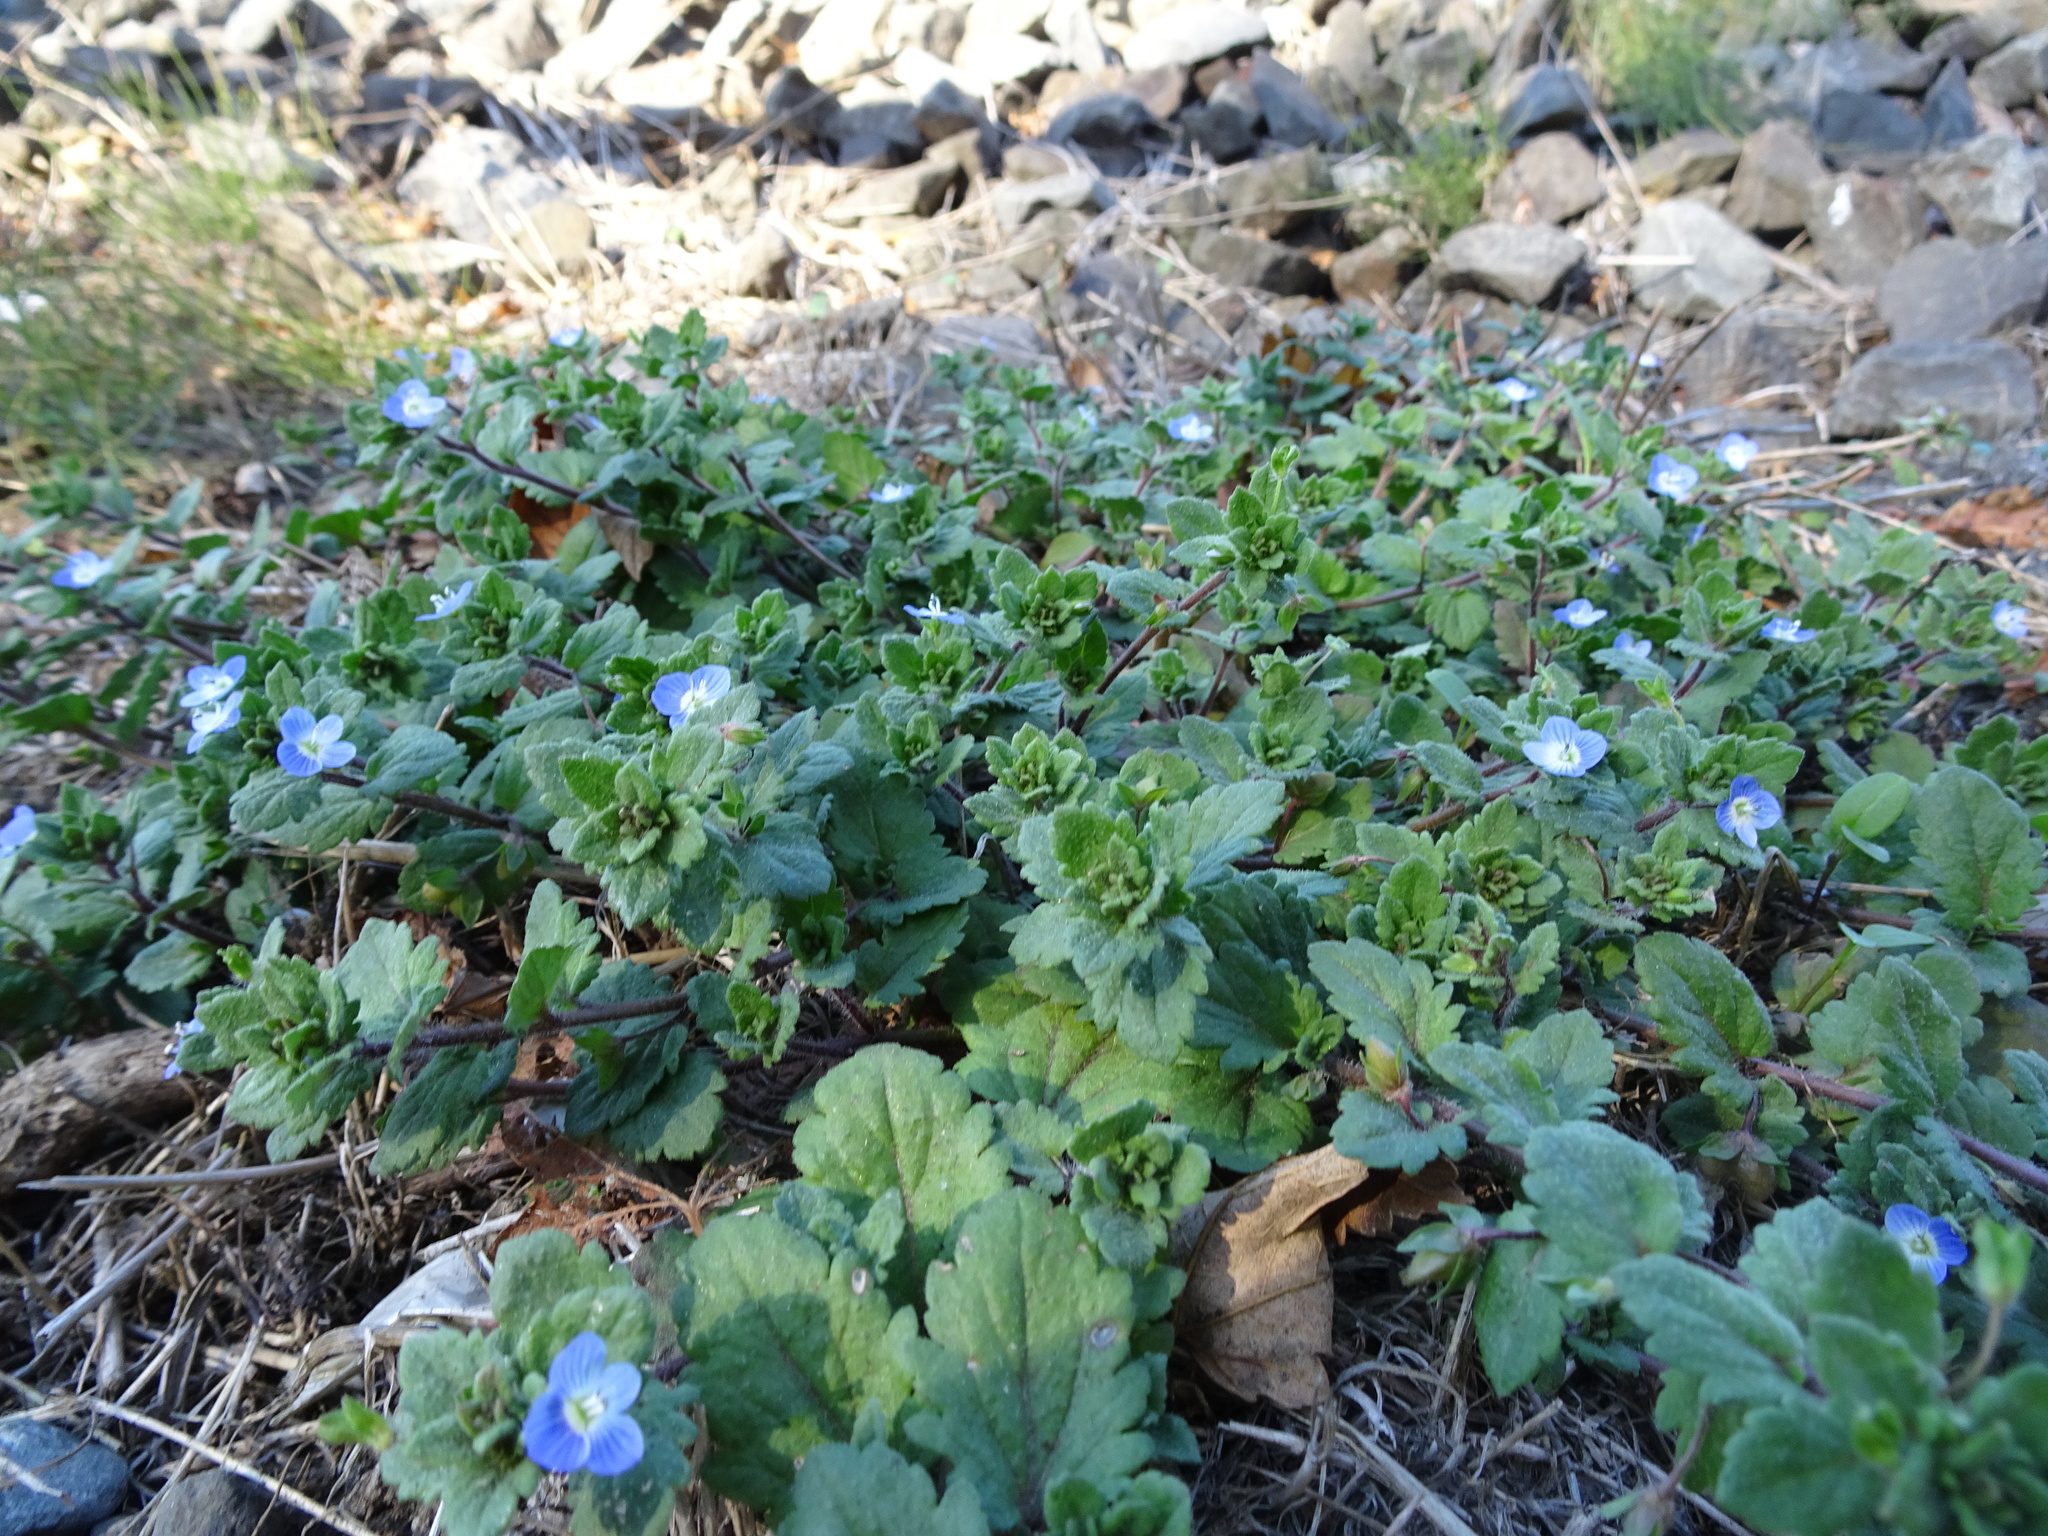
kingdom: Plantae
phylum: Tracheophyta
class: Magnoliopsida
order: Lamiales
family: Plantaginaceae
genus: Veronica
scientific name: Veronica persica
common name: Common field-speedwell
